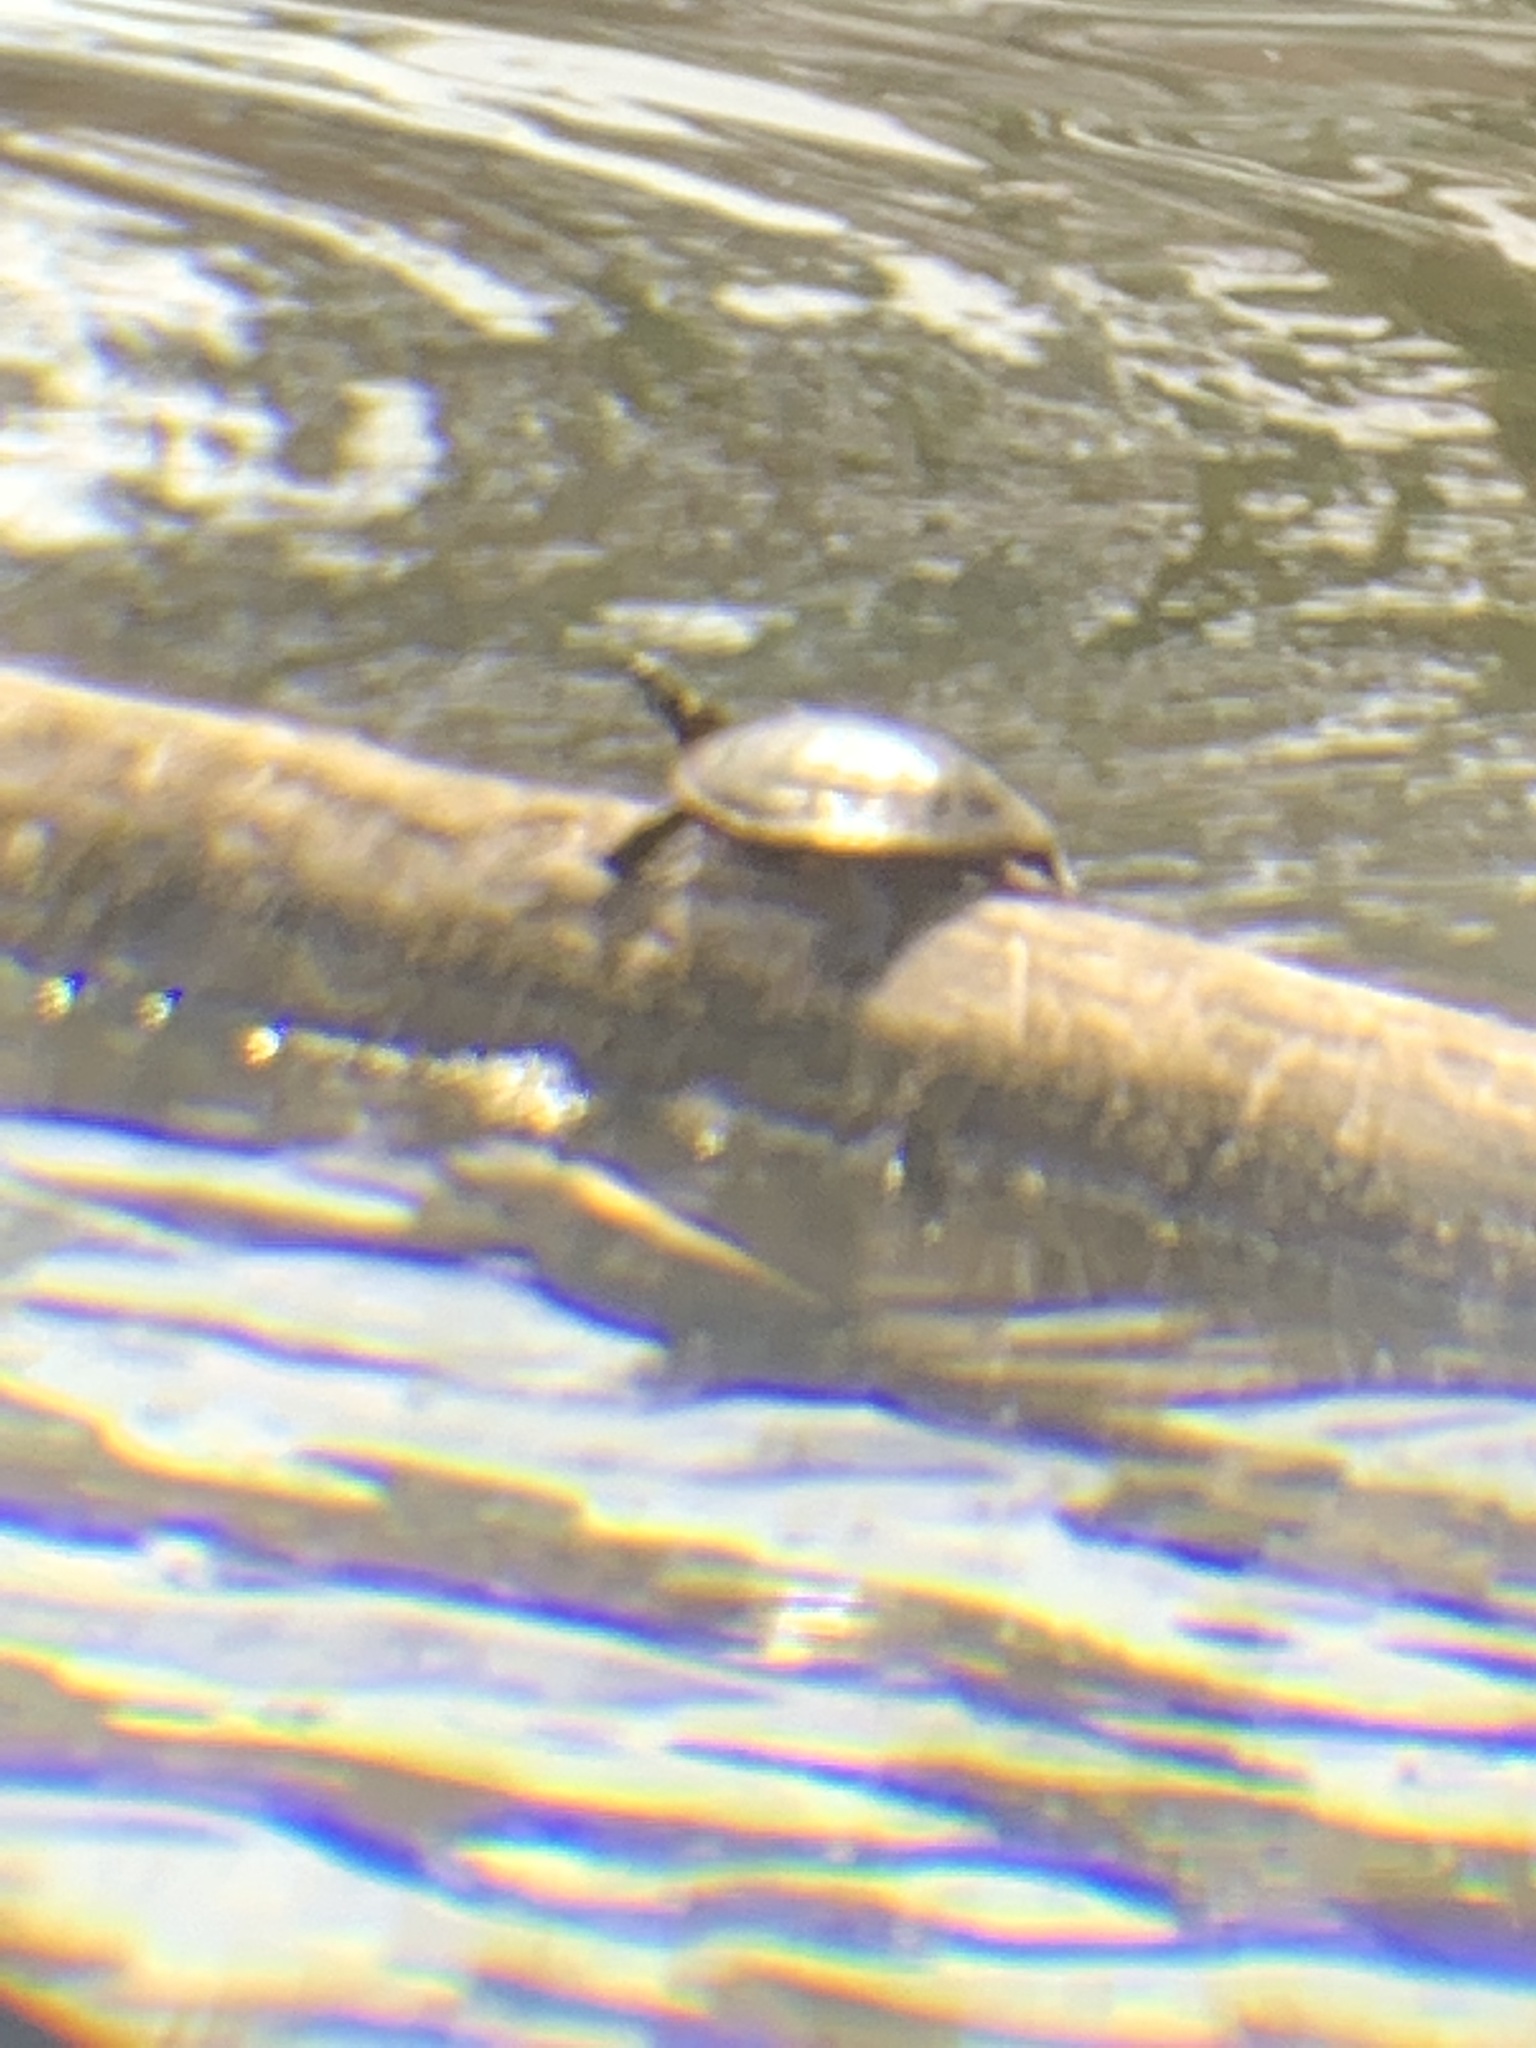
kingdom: Animalia
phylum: Chordata
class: Testudines
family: Emydidae
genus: Chrysemys
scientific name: Chrysemys picta
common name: Painted turtle
